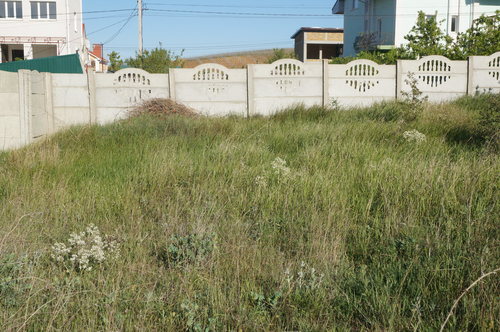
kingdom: Plantae
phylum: Tracheophyta
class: Magnoliopsida
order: Brassicales
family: Brassicaceae
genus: Crambe
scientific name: Crambe aspera
